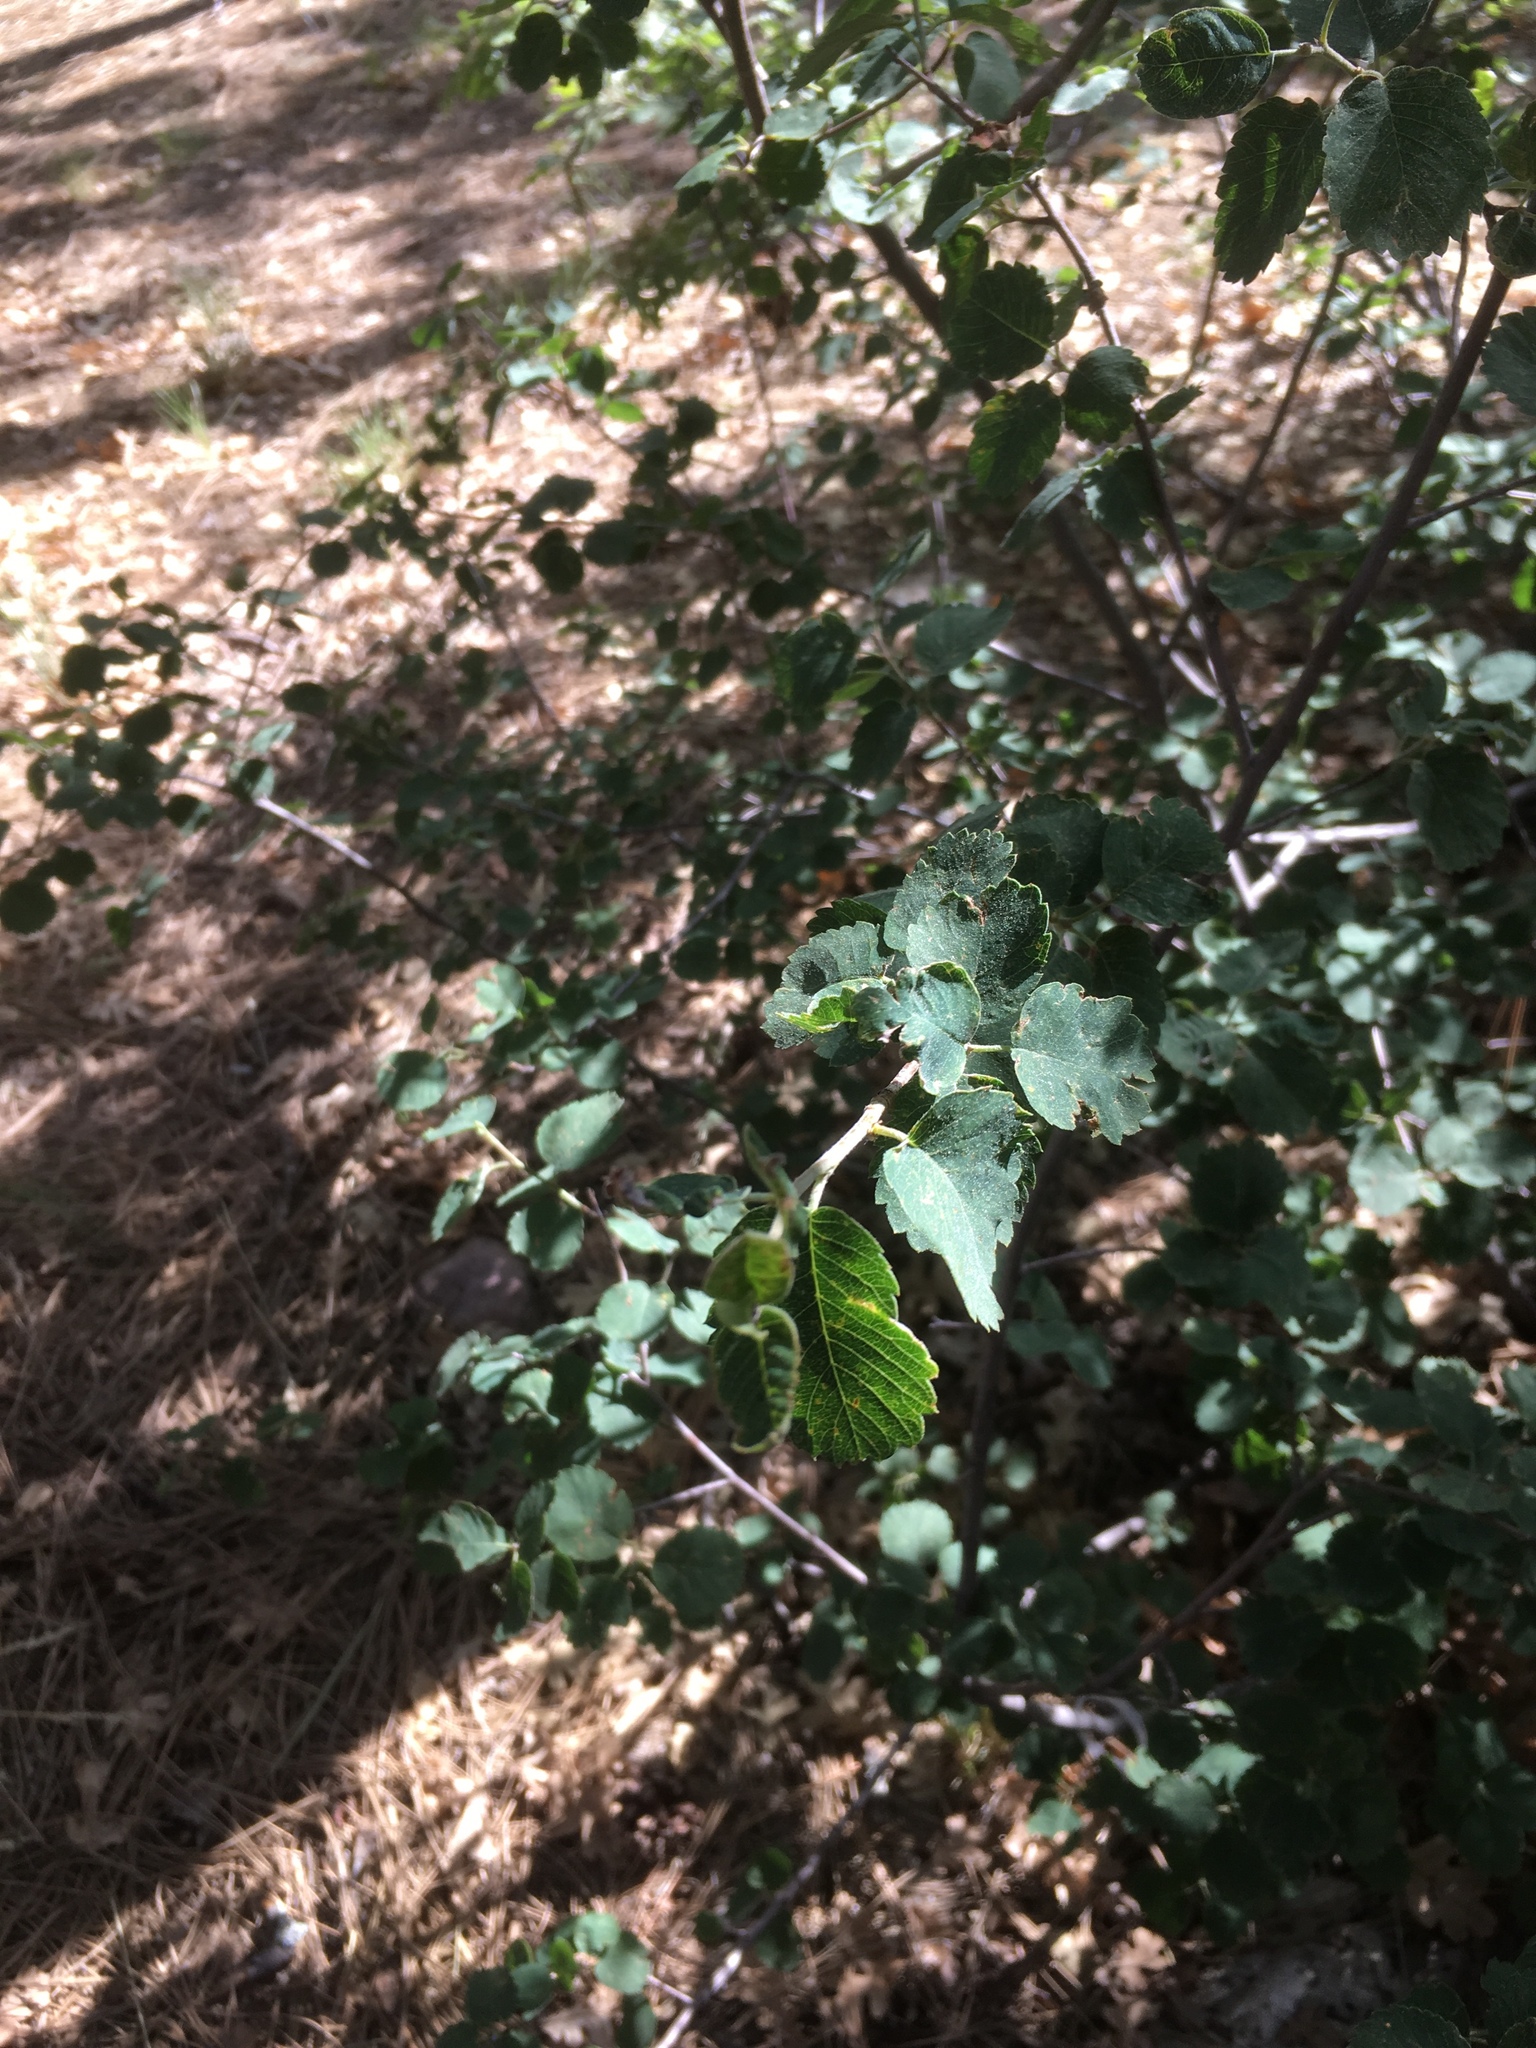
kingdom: Plantae
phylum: Tracheophyta
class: Magnoliopsida
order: Rosales
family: Rosaceae
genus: Amelanchier
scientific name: Amelanchier utahensis
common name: Utah serviceberry
